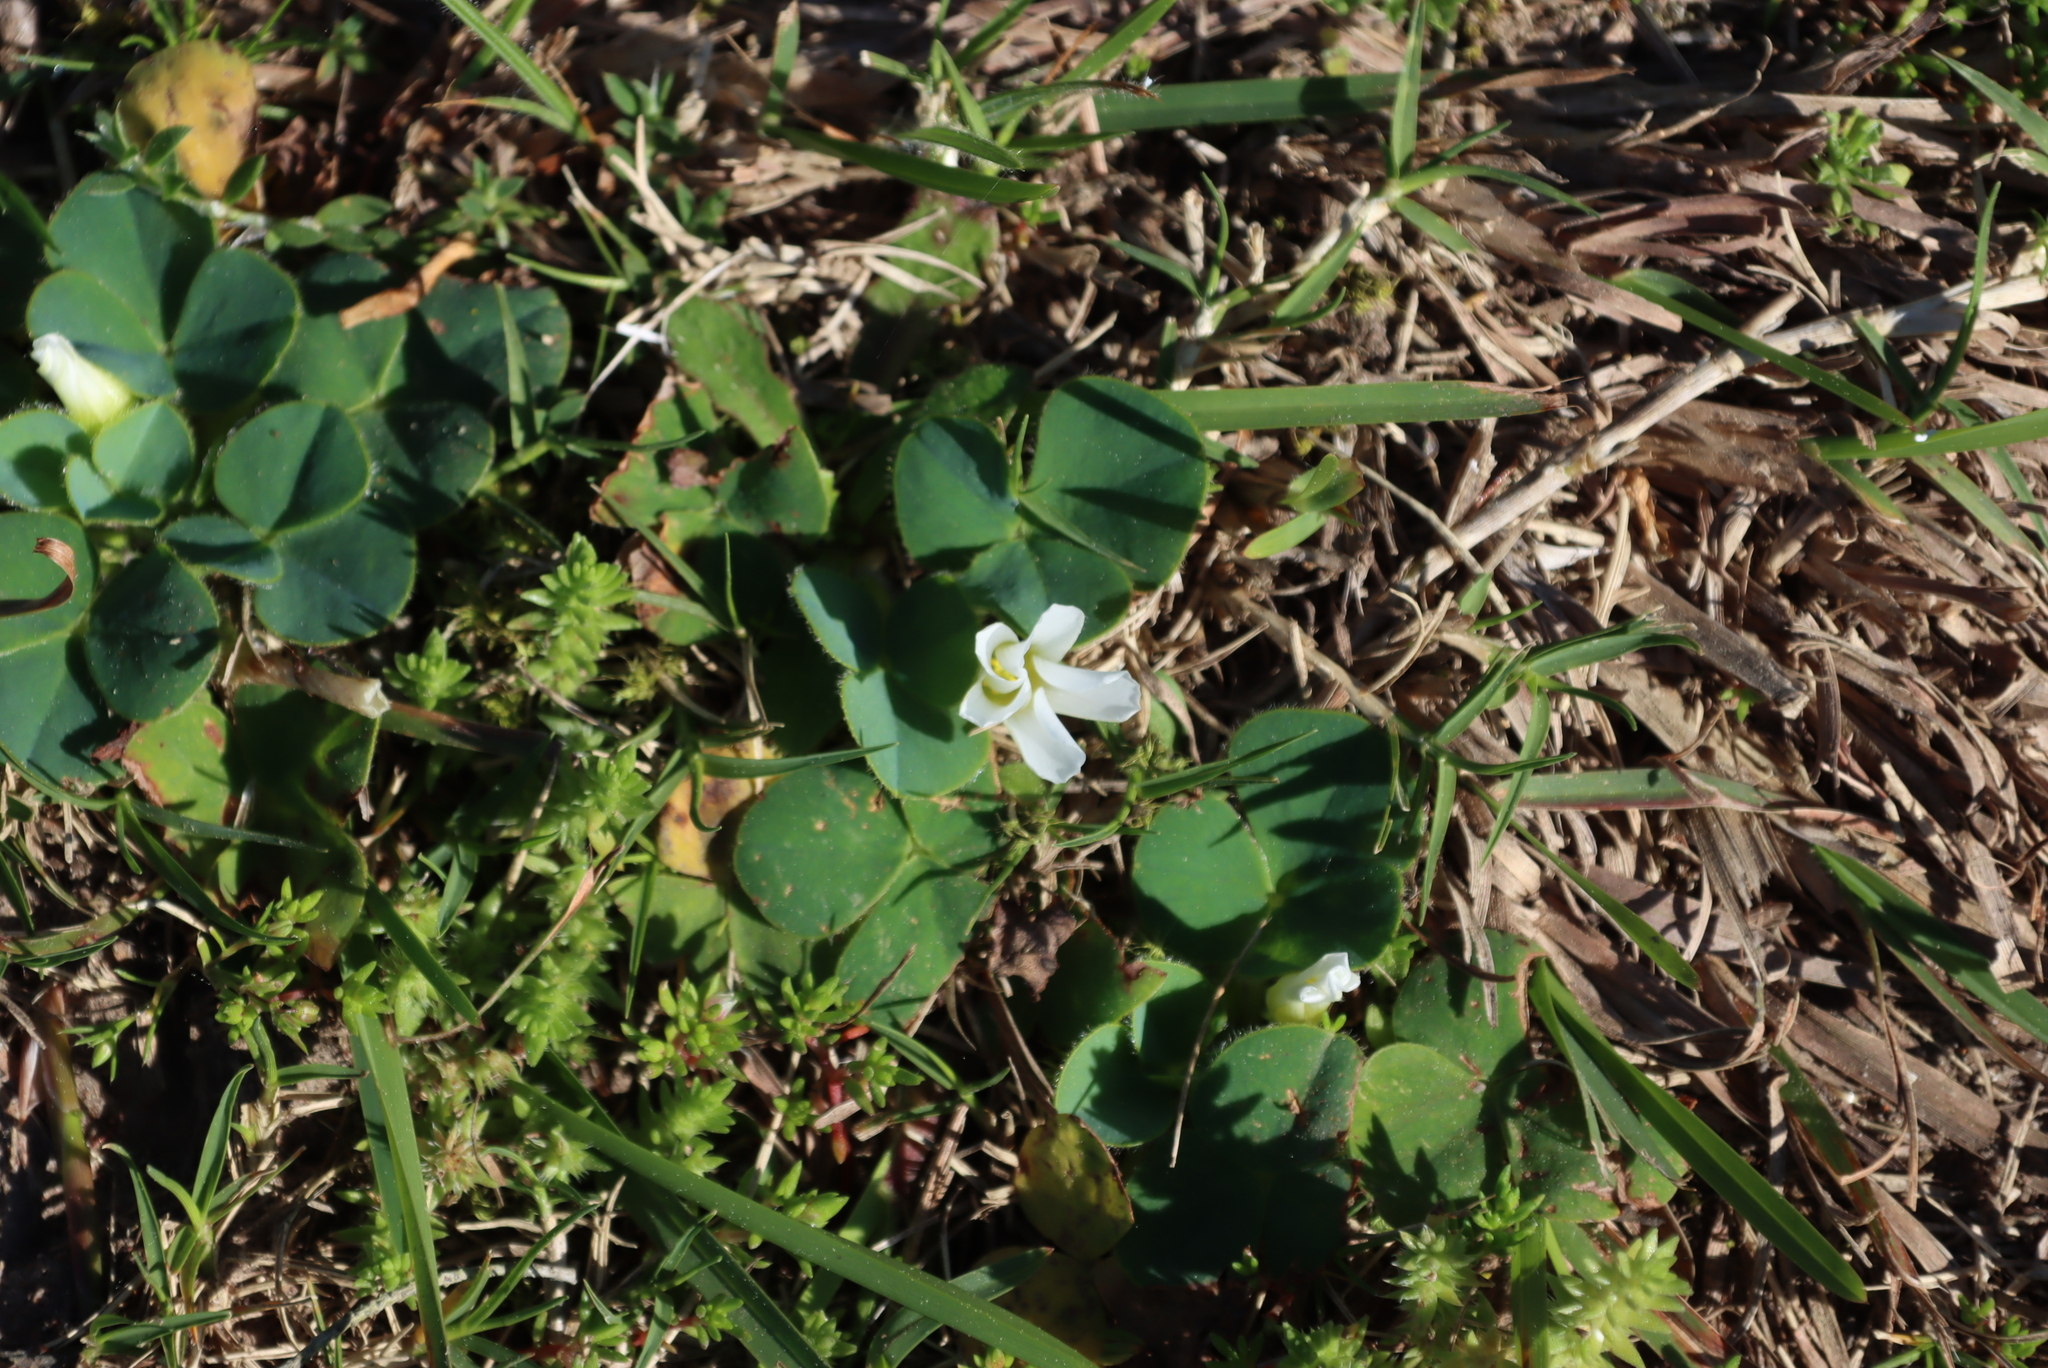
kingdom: Plantae
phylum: Tracheophyta
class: Magnoliopsida
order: Oxalidales
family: Oxalidaceae
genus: Oxalis
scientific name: Oxalis purpurea
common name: Purple woodsorrel
